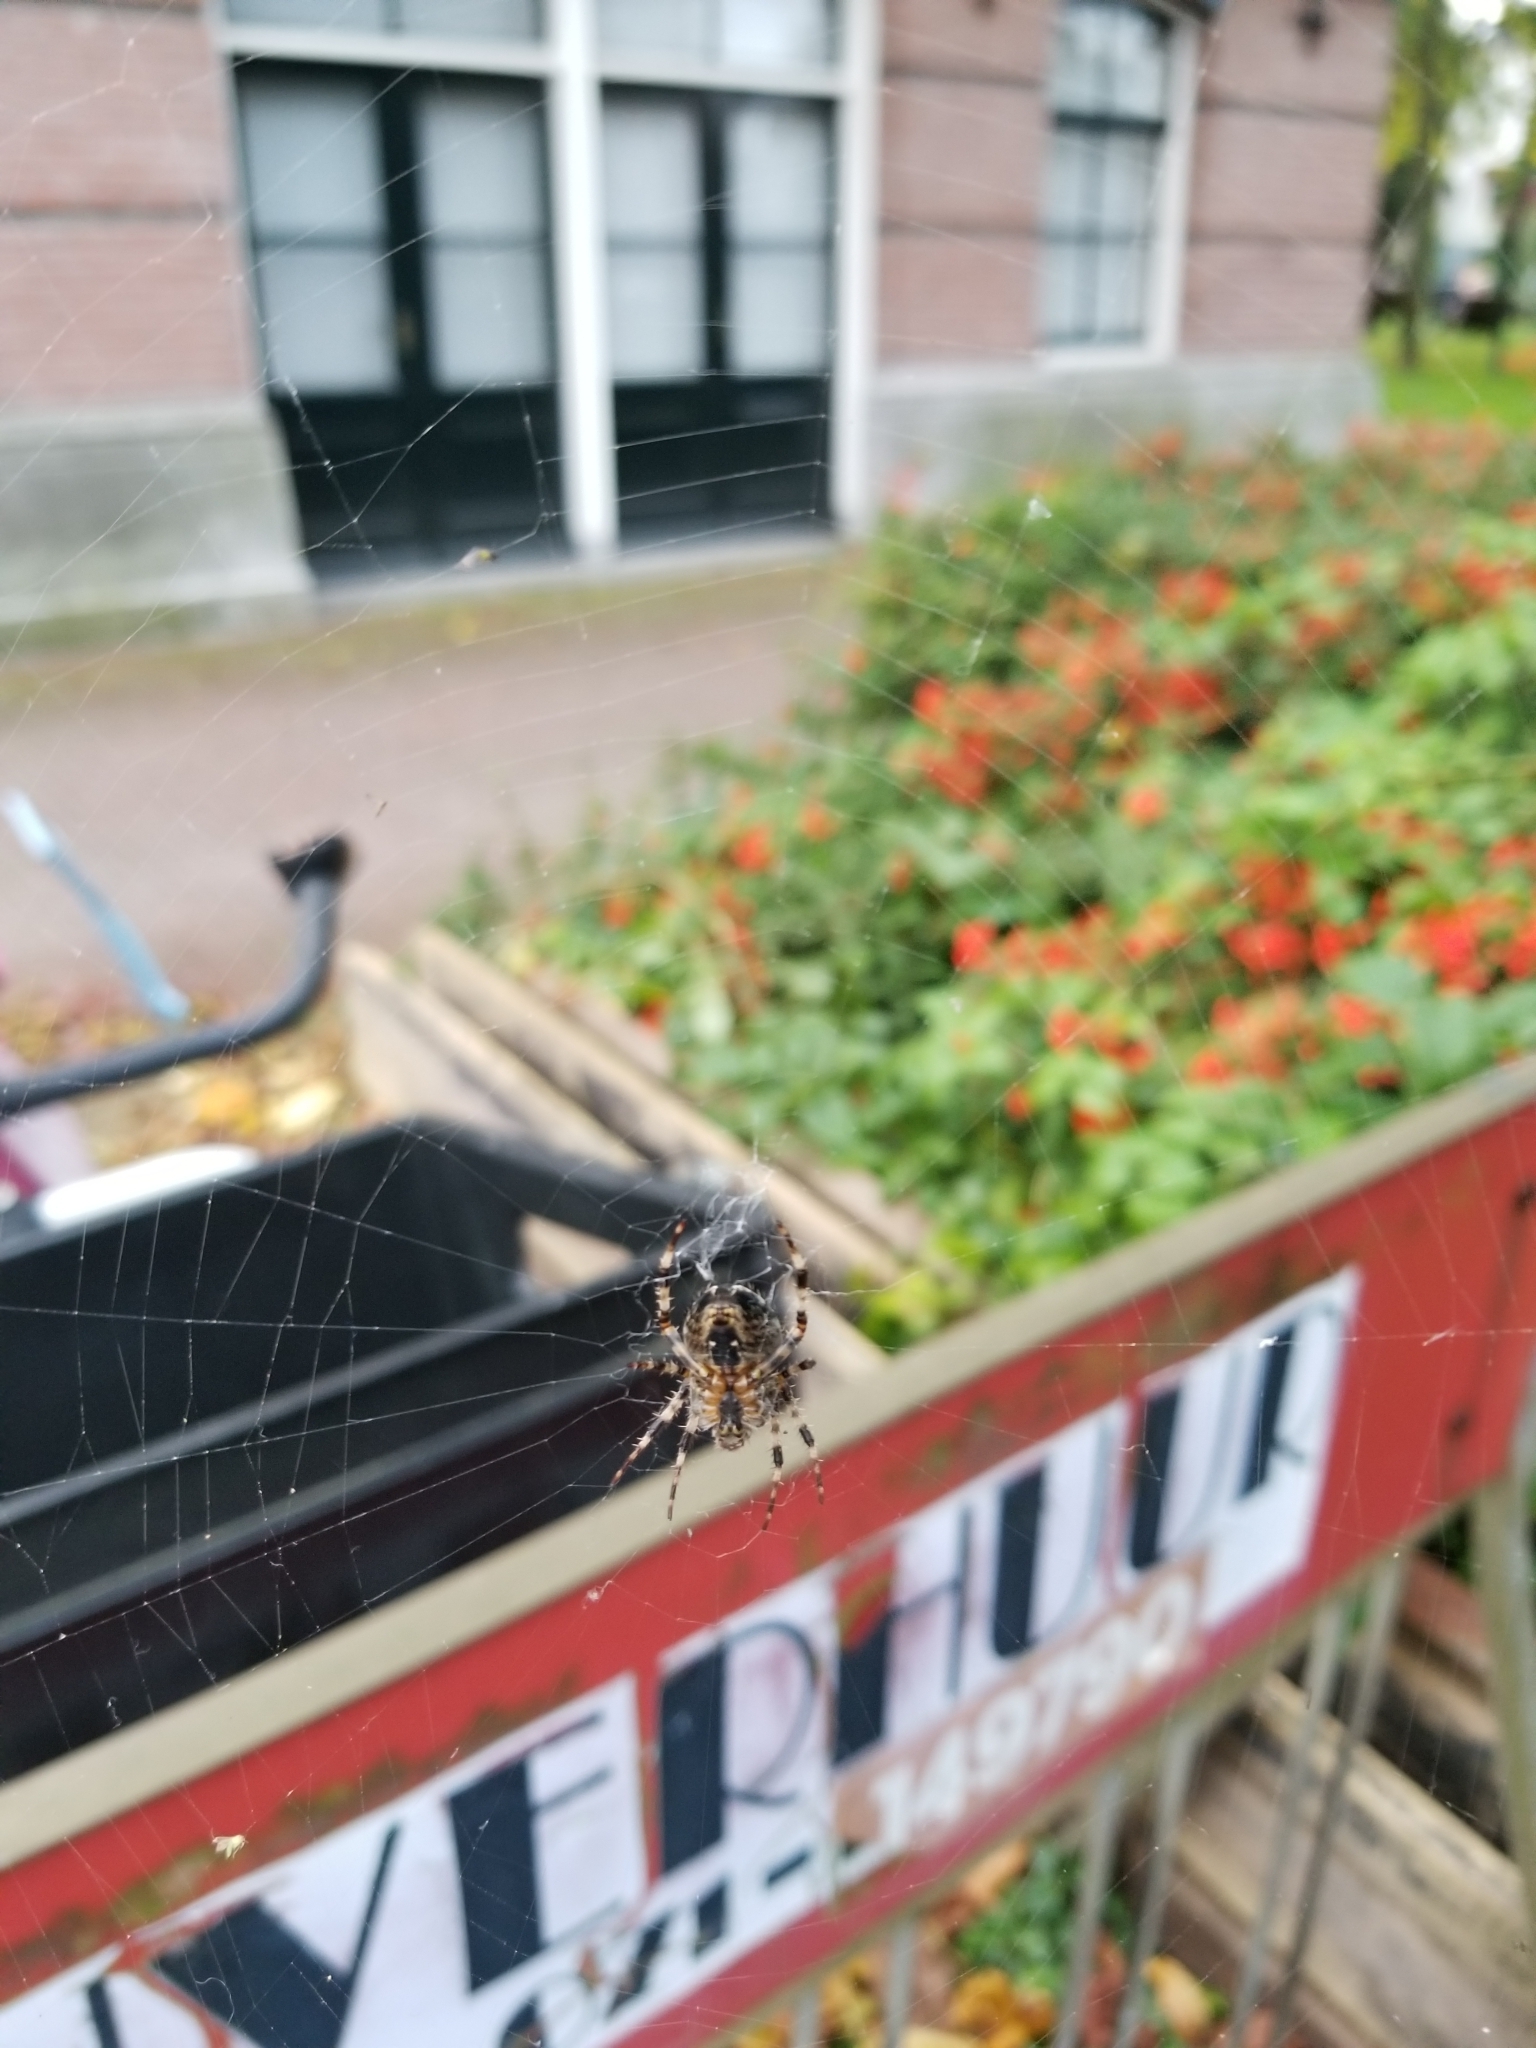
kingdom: Animalia
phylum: Arthropoda
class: Arachnida
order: Araneae
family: Araneidae
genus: Araneus
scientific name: Araneus diadematus
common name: Cross orbweaver
